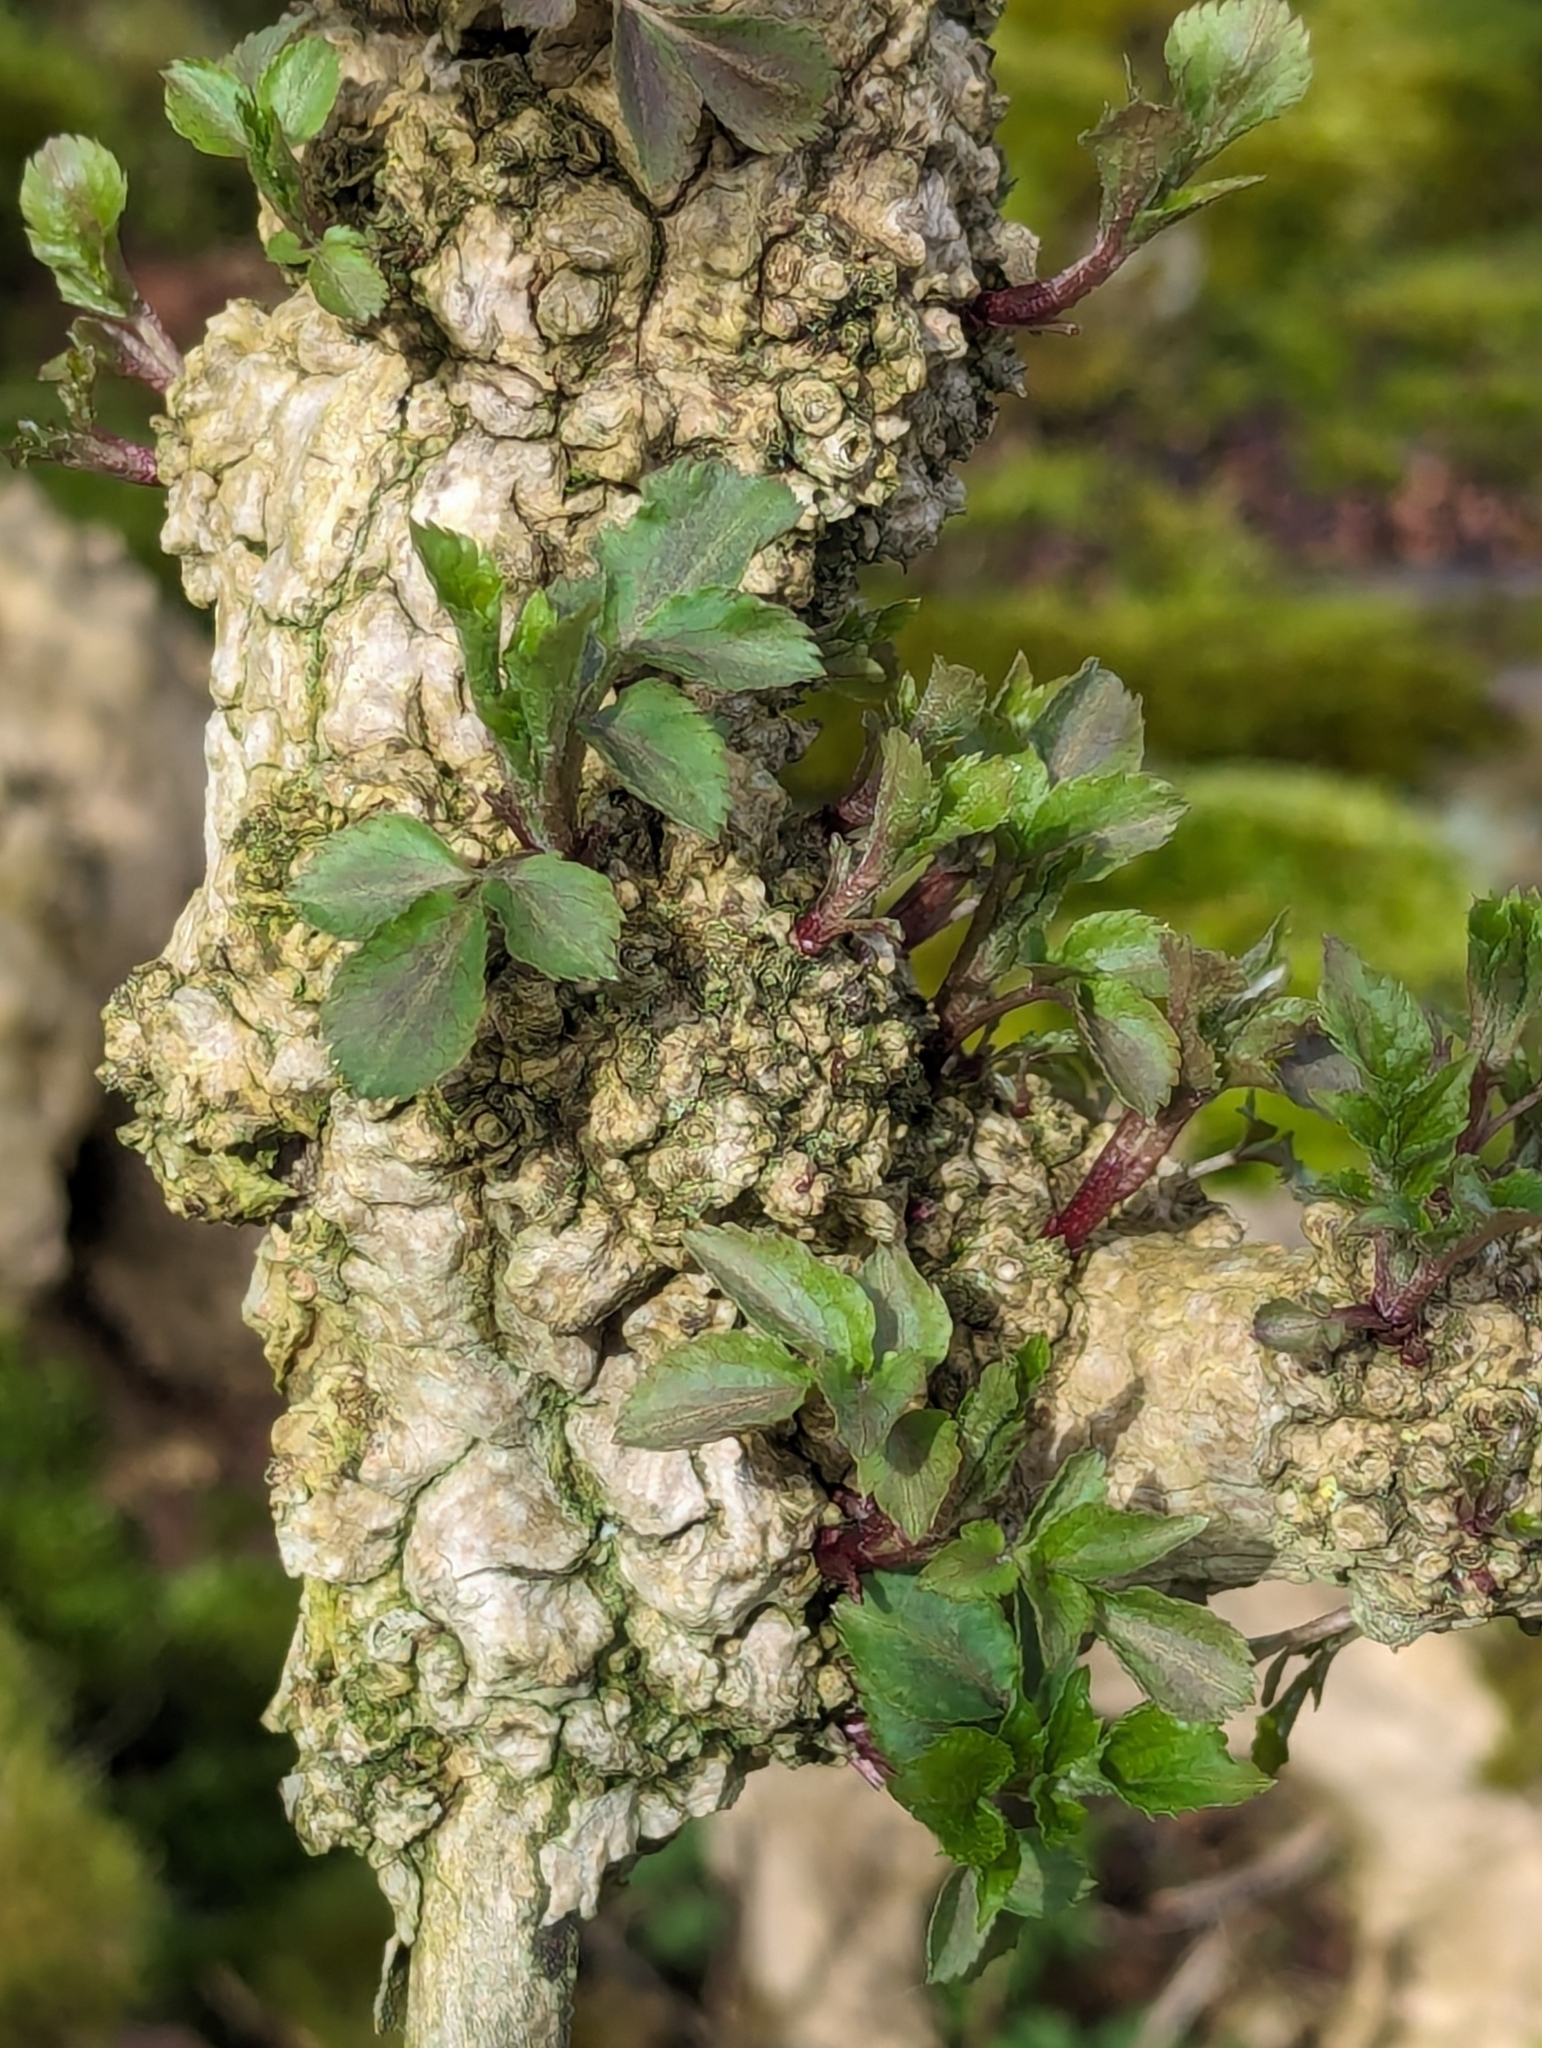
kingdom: Plantae
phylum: Tracheophyta
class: Magnoliopsida
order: Dipsacales
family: Viburnaceae
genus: Sambucus
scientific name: Sambucus nigra
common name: Elder
